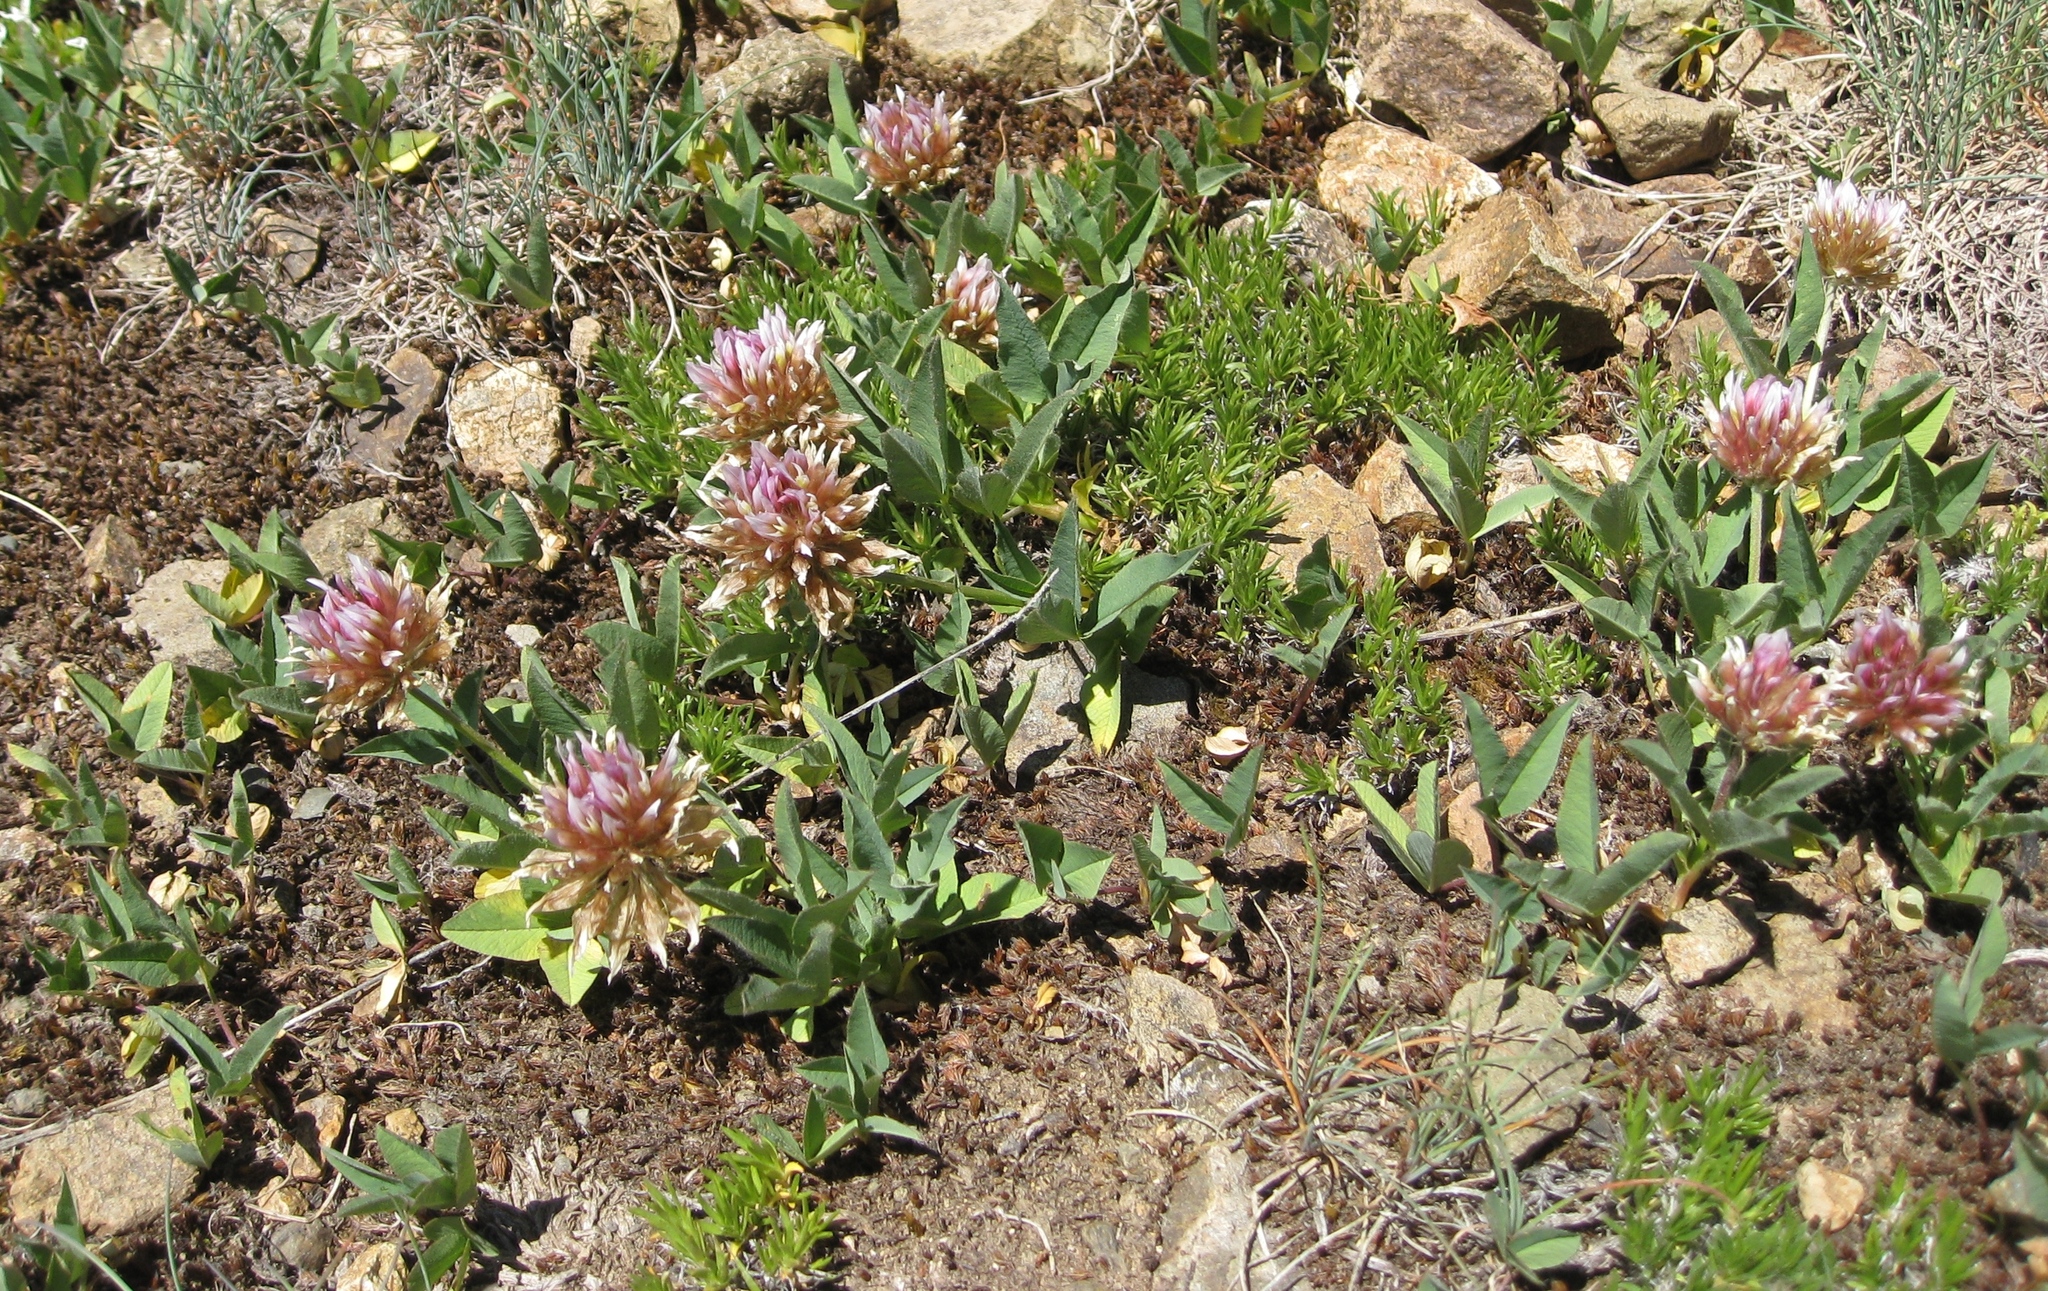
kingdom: Plantae
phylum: Tracheophyta
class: Magnoliopsida
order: Fabales
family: Fabaceae
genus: Trifolium
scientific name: Trifolium longipes
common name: Long-stalk clover
